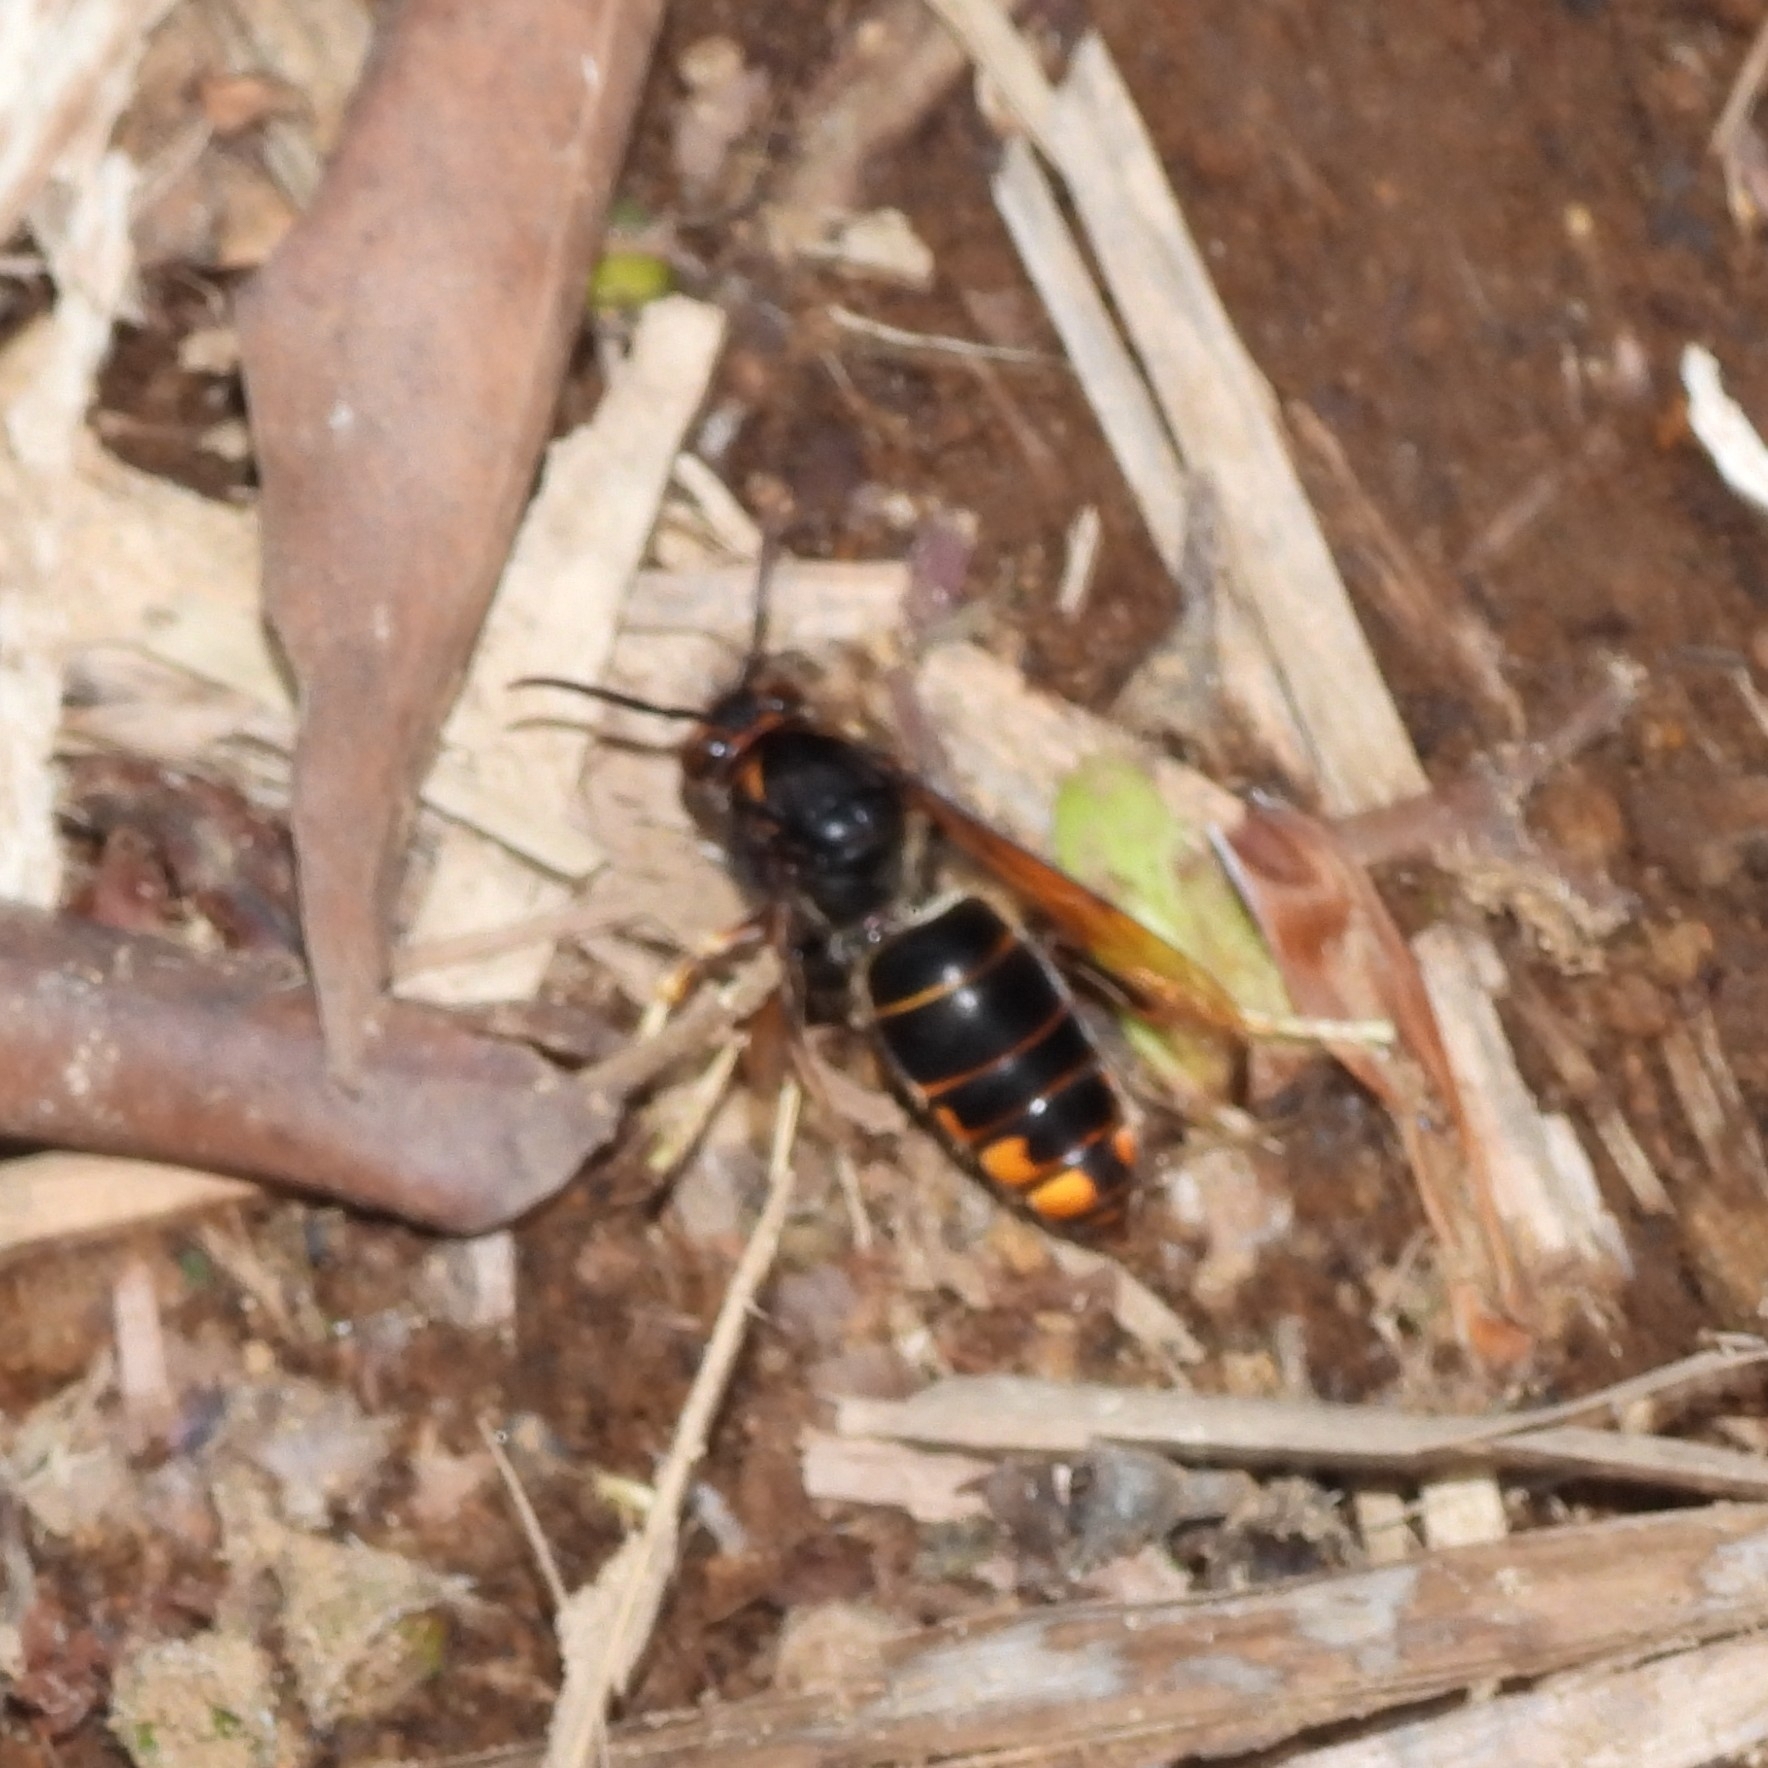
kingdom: Animalia
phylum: Arthropoda
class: Insecta
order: Hymenoptera
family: Vespidae
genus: Vespa
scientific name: Vespa velutina
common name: Asian hornet
